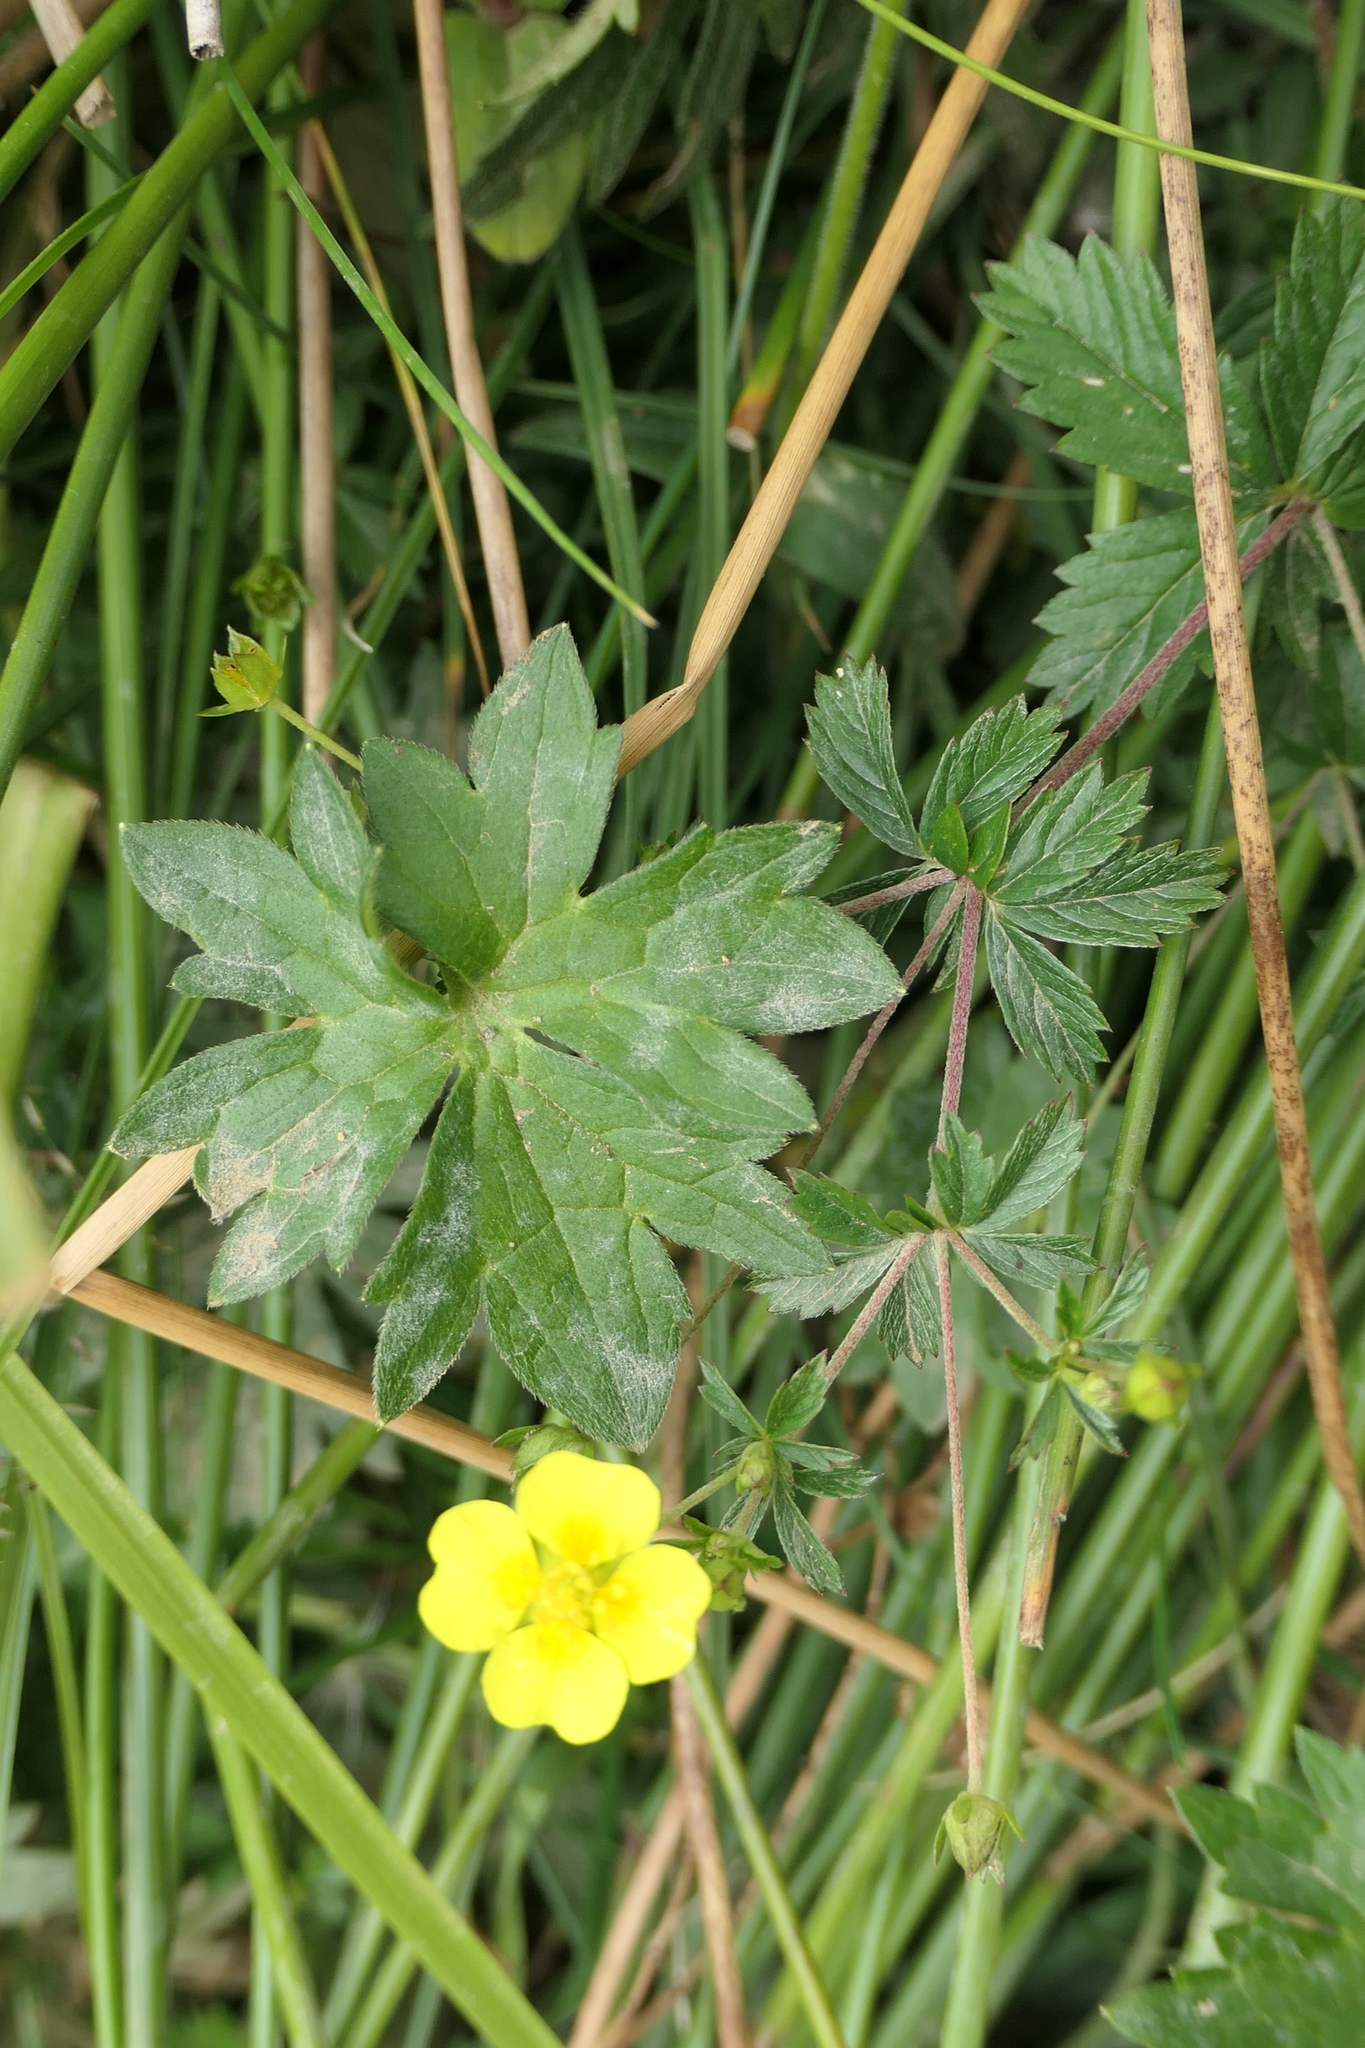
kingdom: Plantae
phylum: Tracheophyta
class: Magnoliopsida
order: Rosales
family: Rosaceae
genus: Potentilla
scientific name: Potentilla erecta
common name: Tormentil
